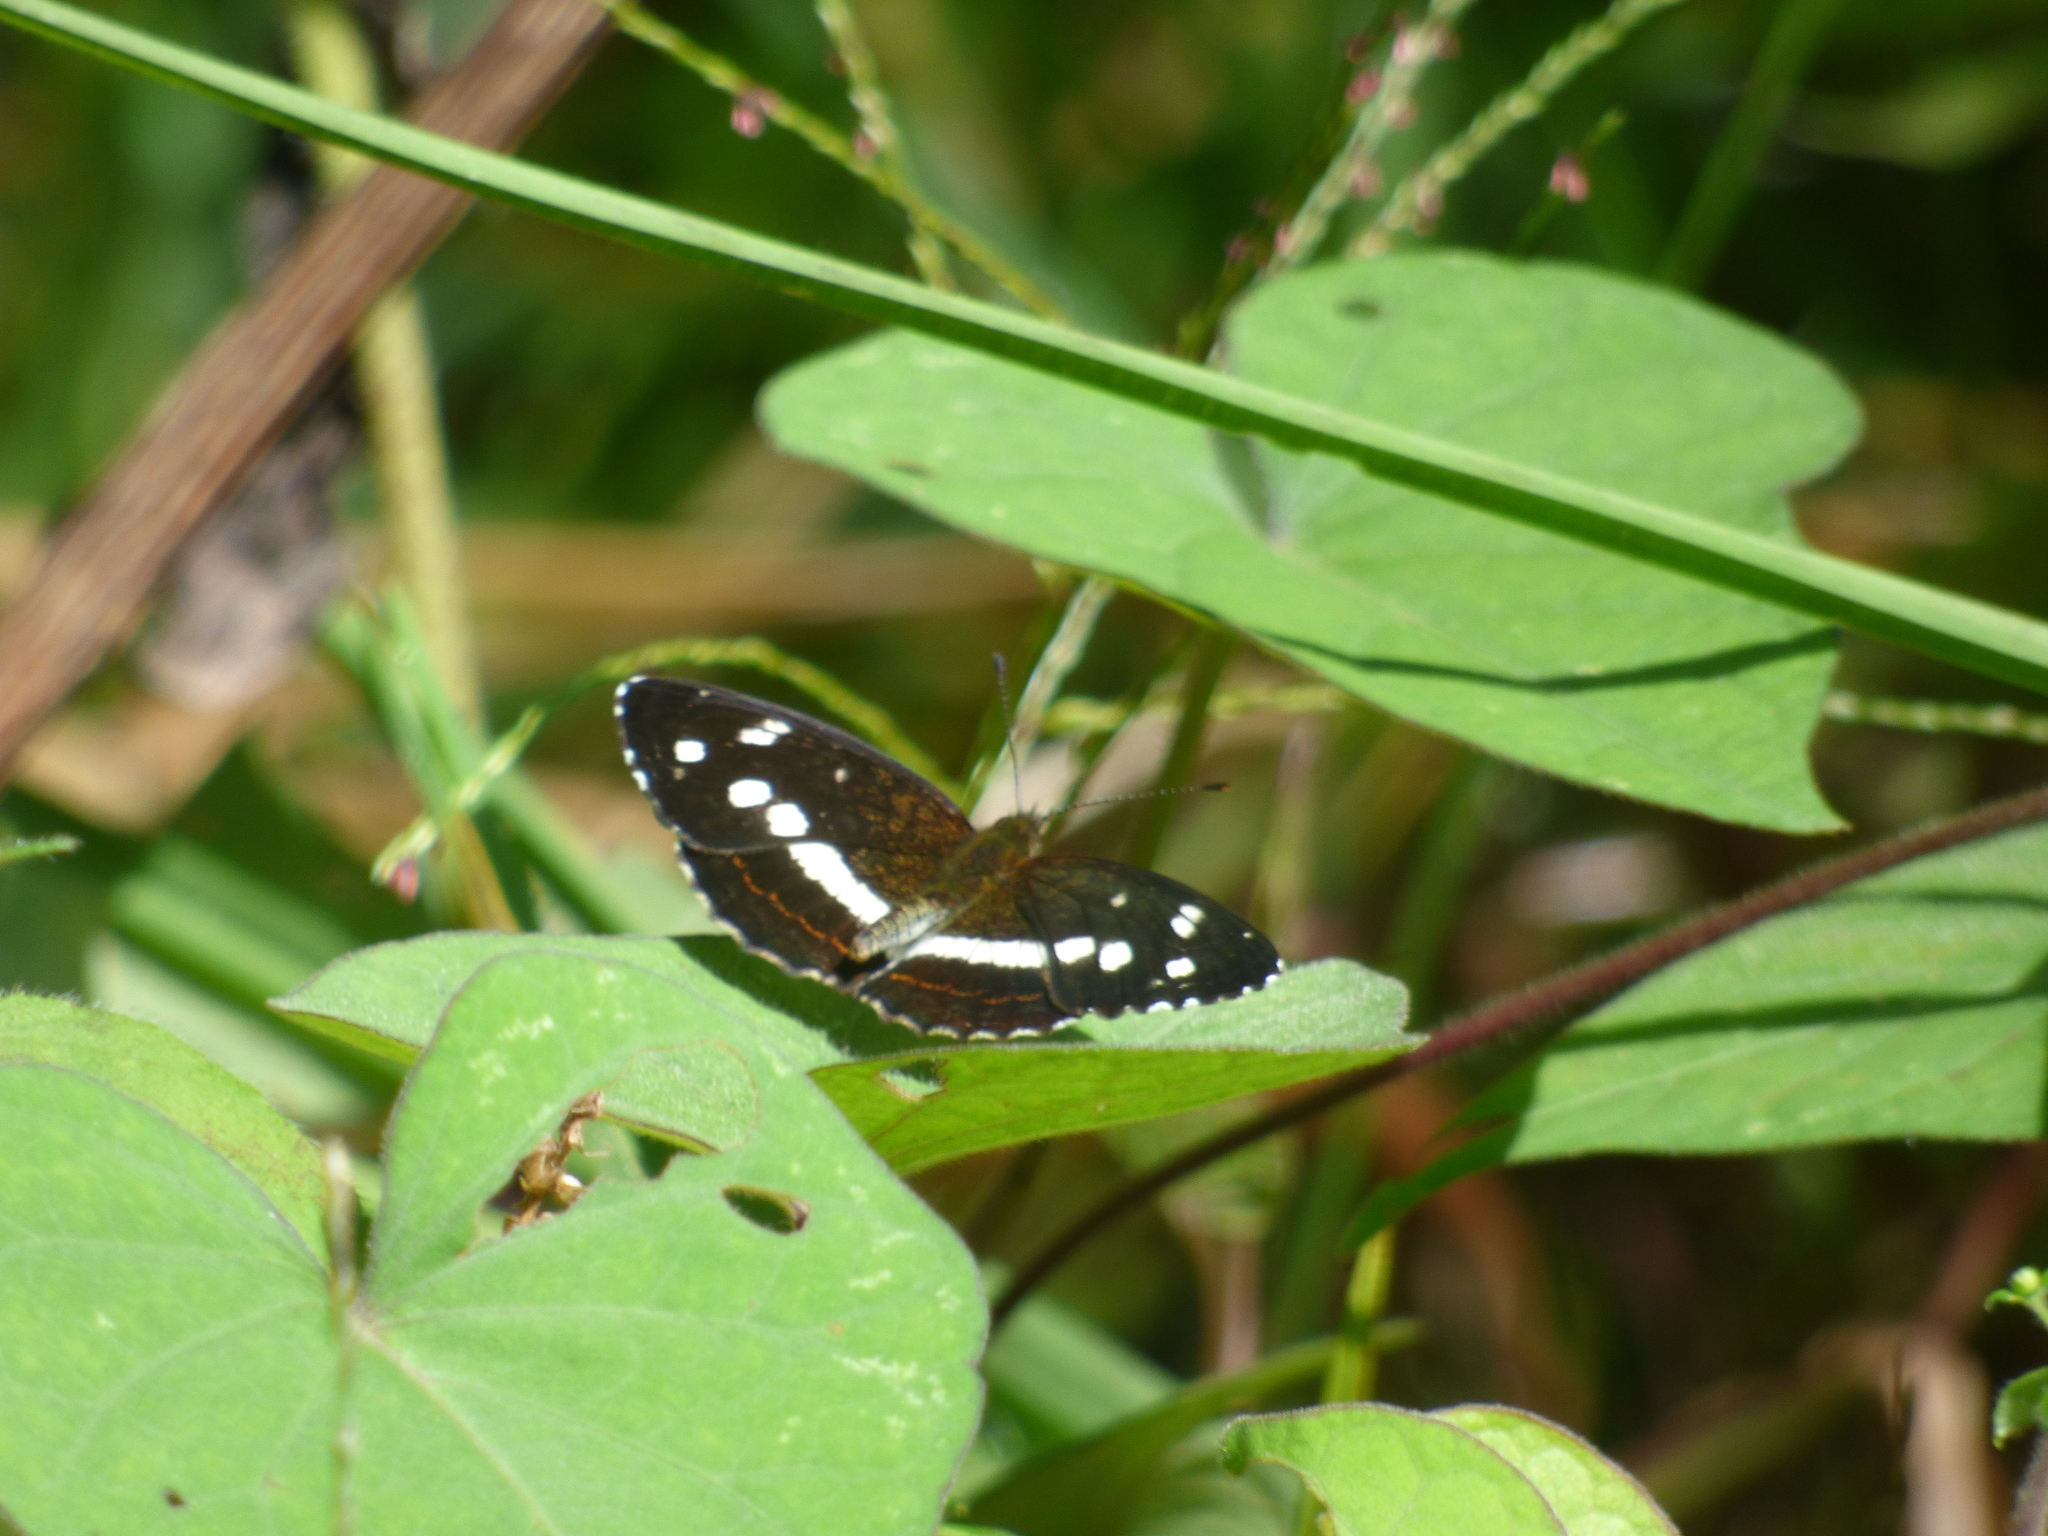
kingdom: Animalia
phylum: Arthropoda
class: Insecta
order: Lepidoptera
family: Nymphalidae
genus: Janatella
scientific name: Janatella fellula
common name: Colombian crescent
